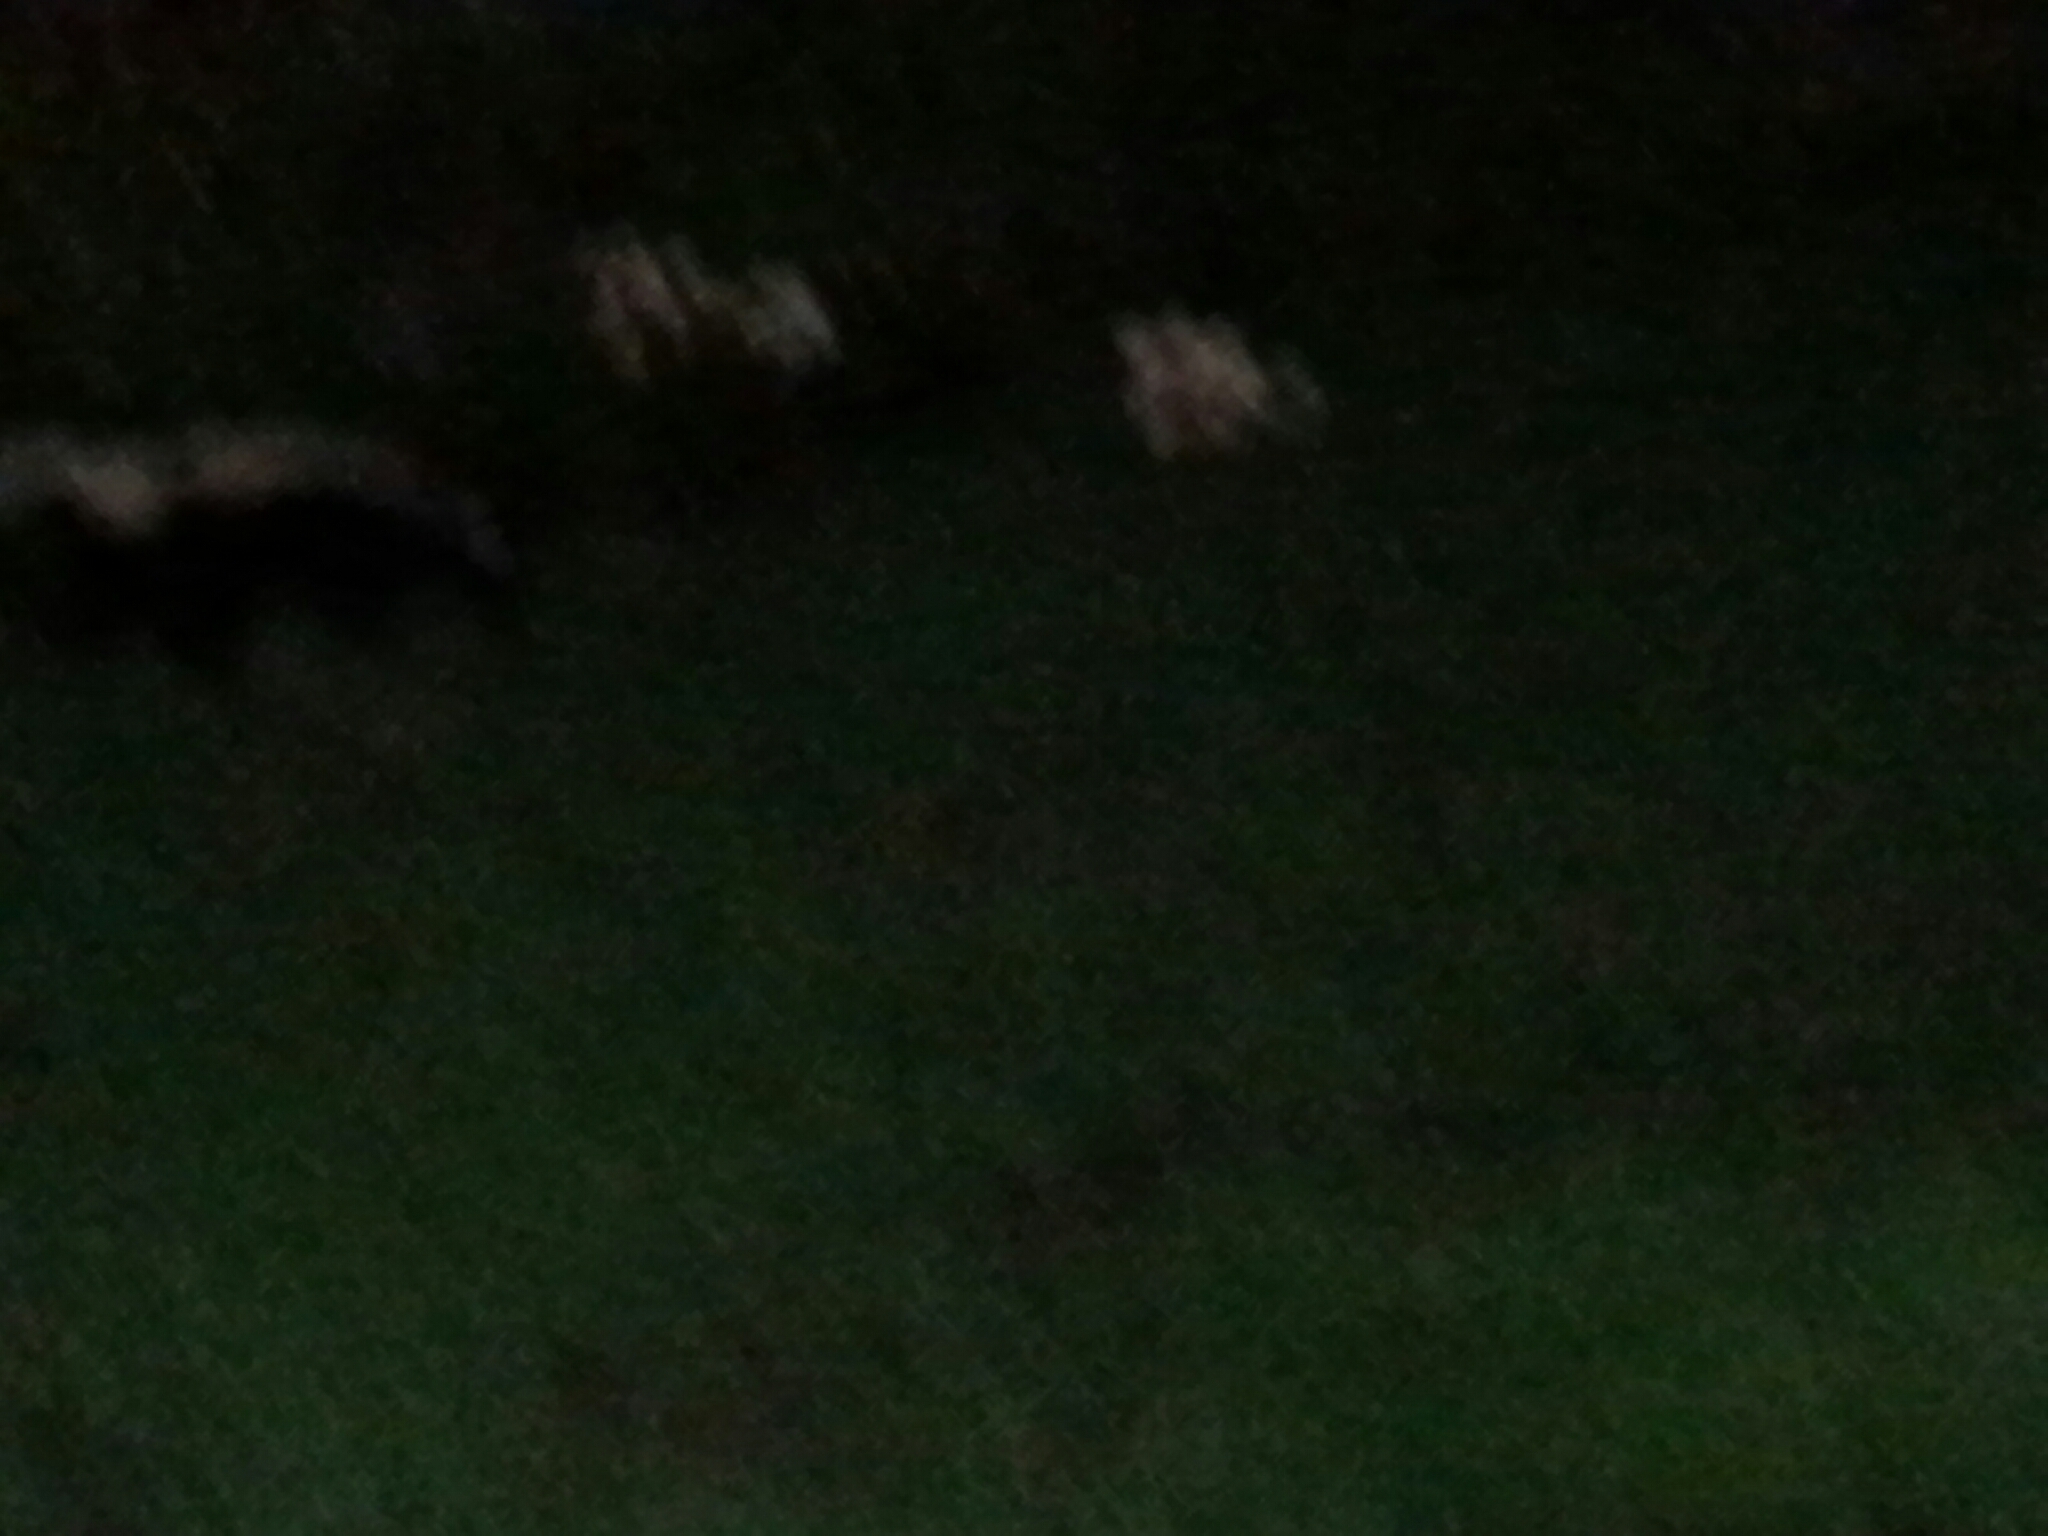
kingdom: Animalia
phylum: Chordata
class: Mammalia
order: Carnivora
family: Mephitidae
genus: Mephitis
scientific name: Mephitis mephitis
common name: Striped skunk
